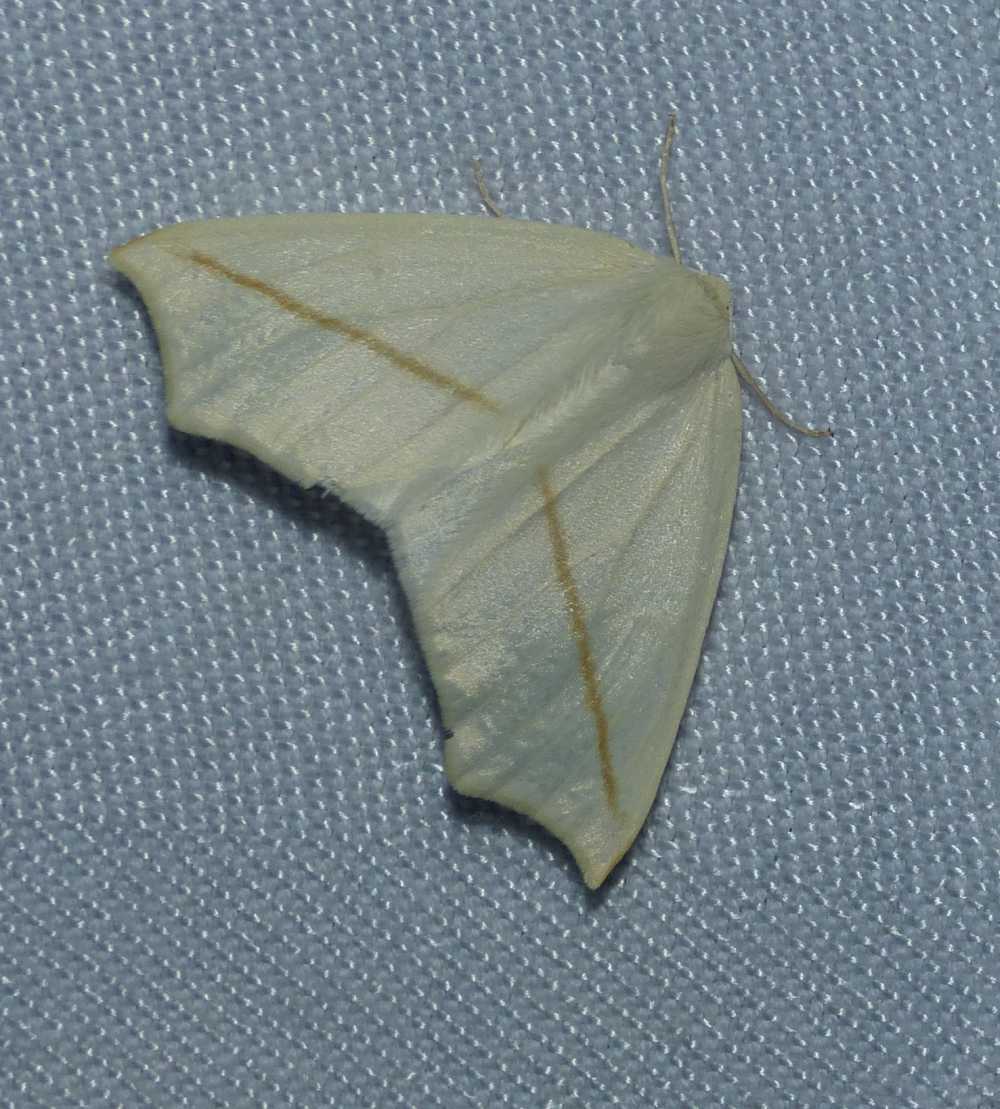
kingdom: Animalia
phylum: Arthropoda
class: Insecta
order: Lepidoptera
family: Geometridae
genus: Tetracis
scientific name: Tetracis cachexiata
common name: White slant-line
